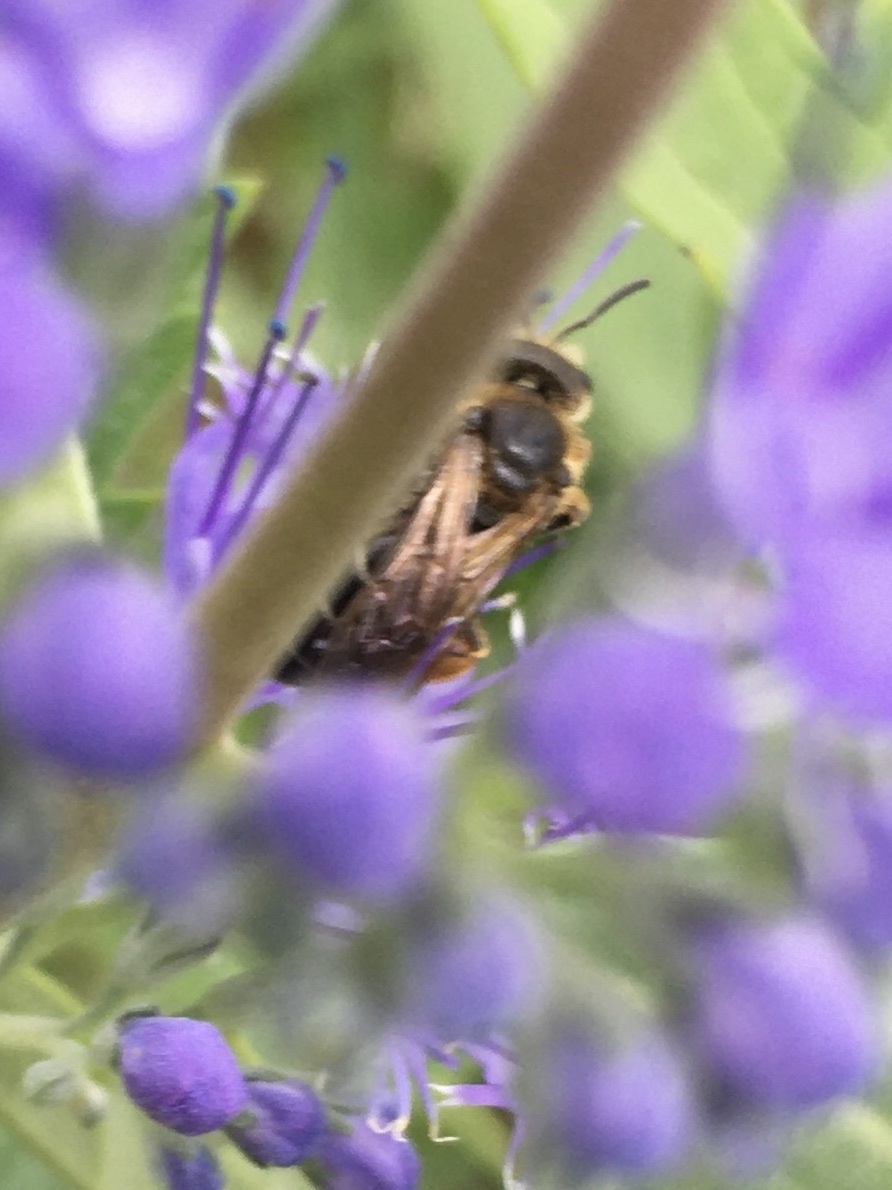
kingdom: Animalia
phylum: Arthropoda
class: Insecta
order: Hymenoptera
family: Halictidae
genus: Halictus
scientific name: Halictus rubicundus
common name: Orange-legged furrow bee
